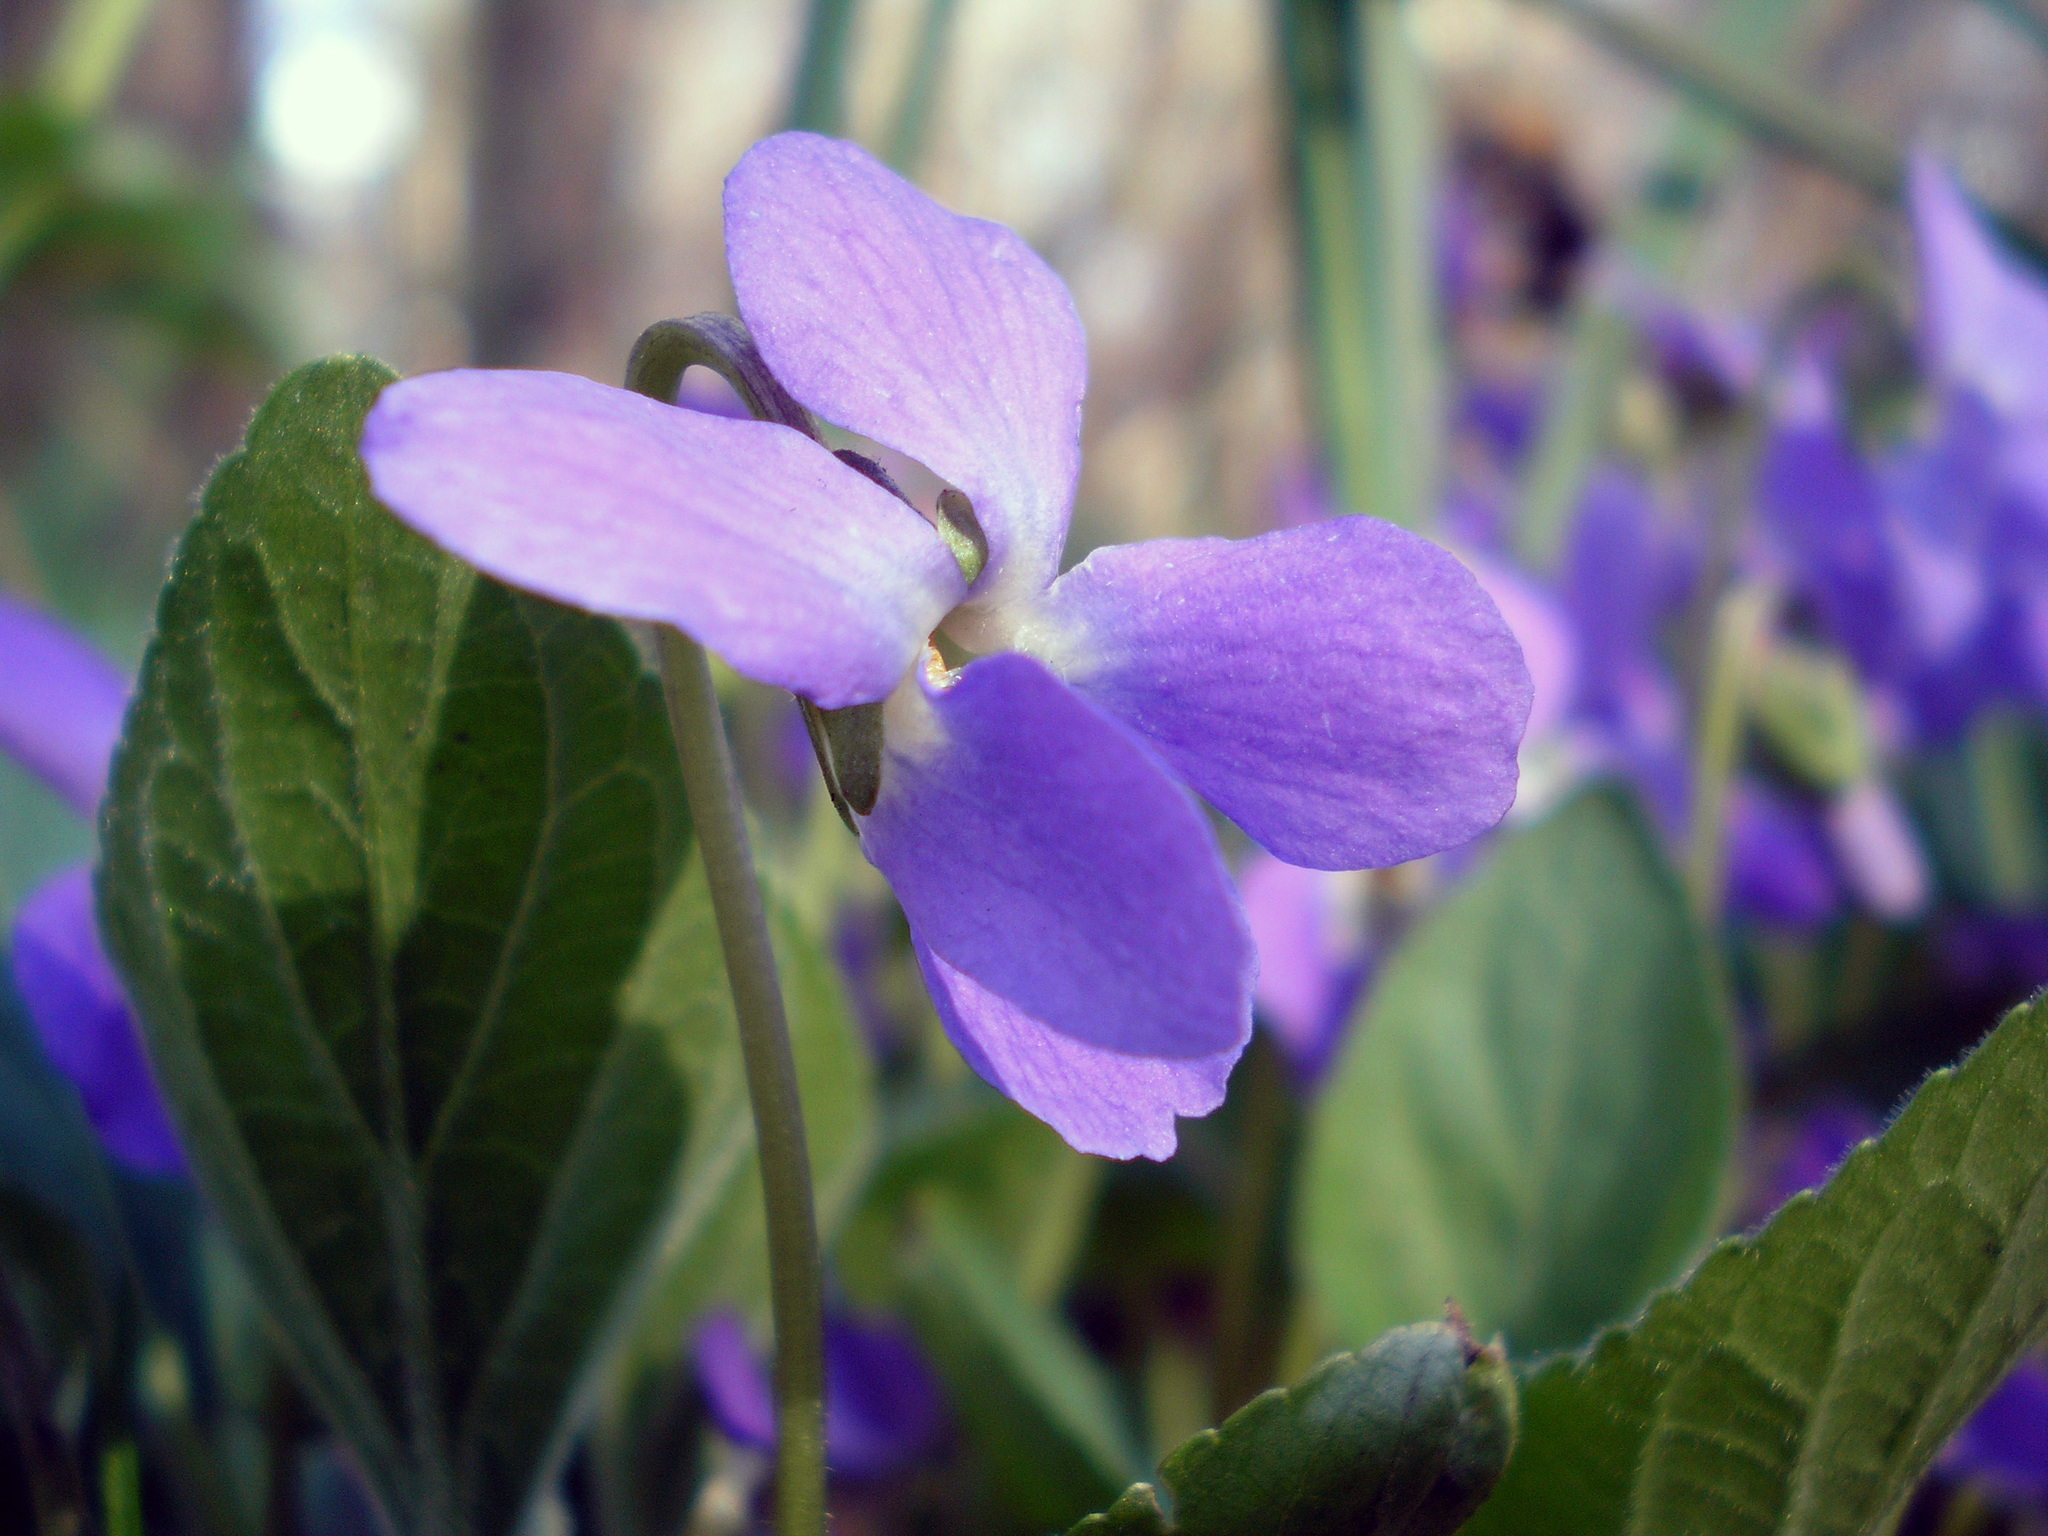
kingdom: Plantae
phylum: Tracheophyta
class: Magnoliopsida
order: Malpighiales
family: Violaceae
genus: Viola
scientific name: Viola hirta
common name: Hairy violet
